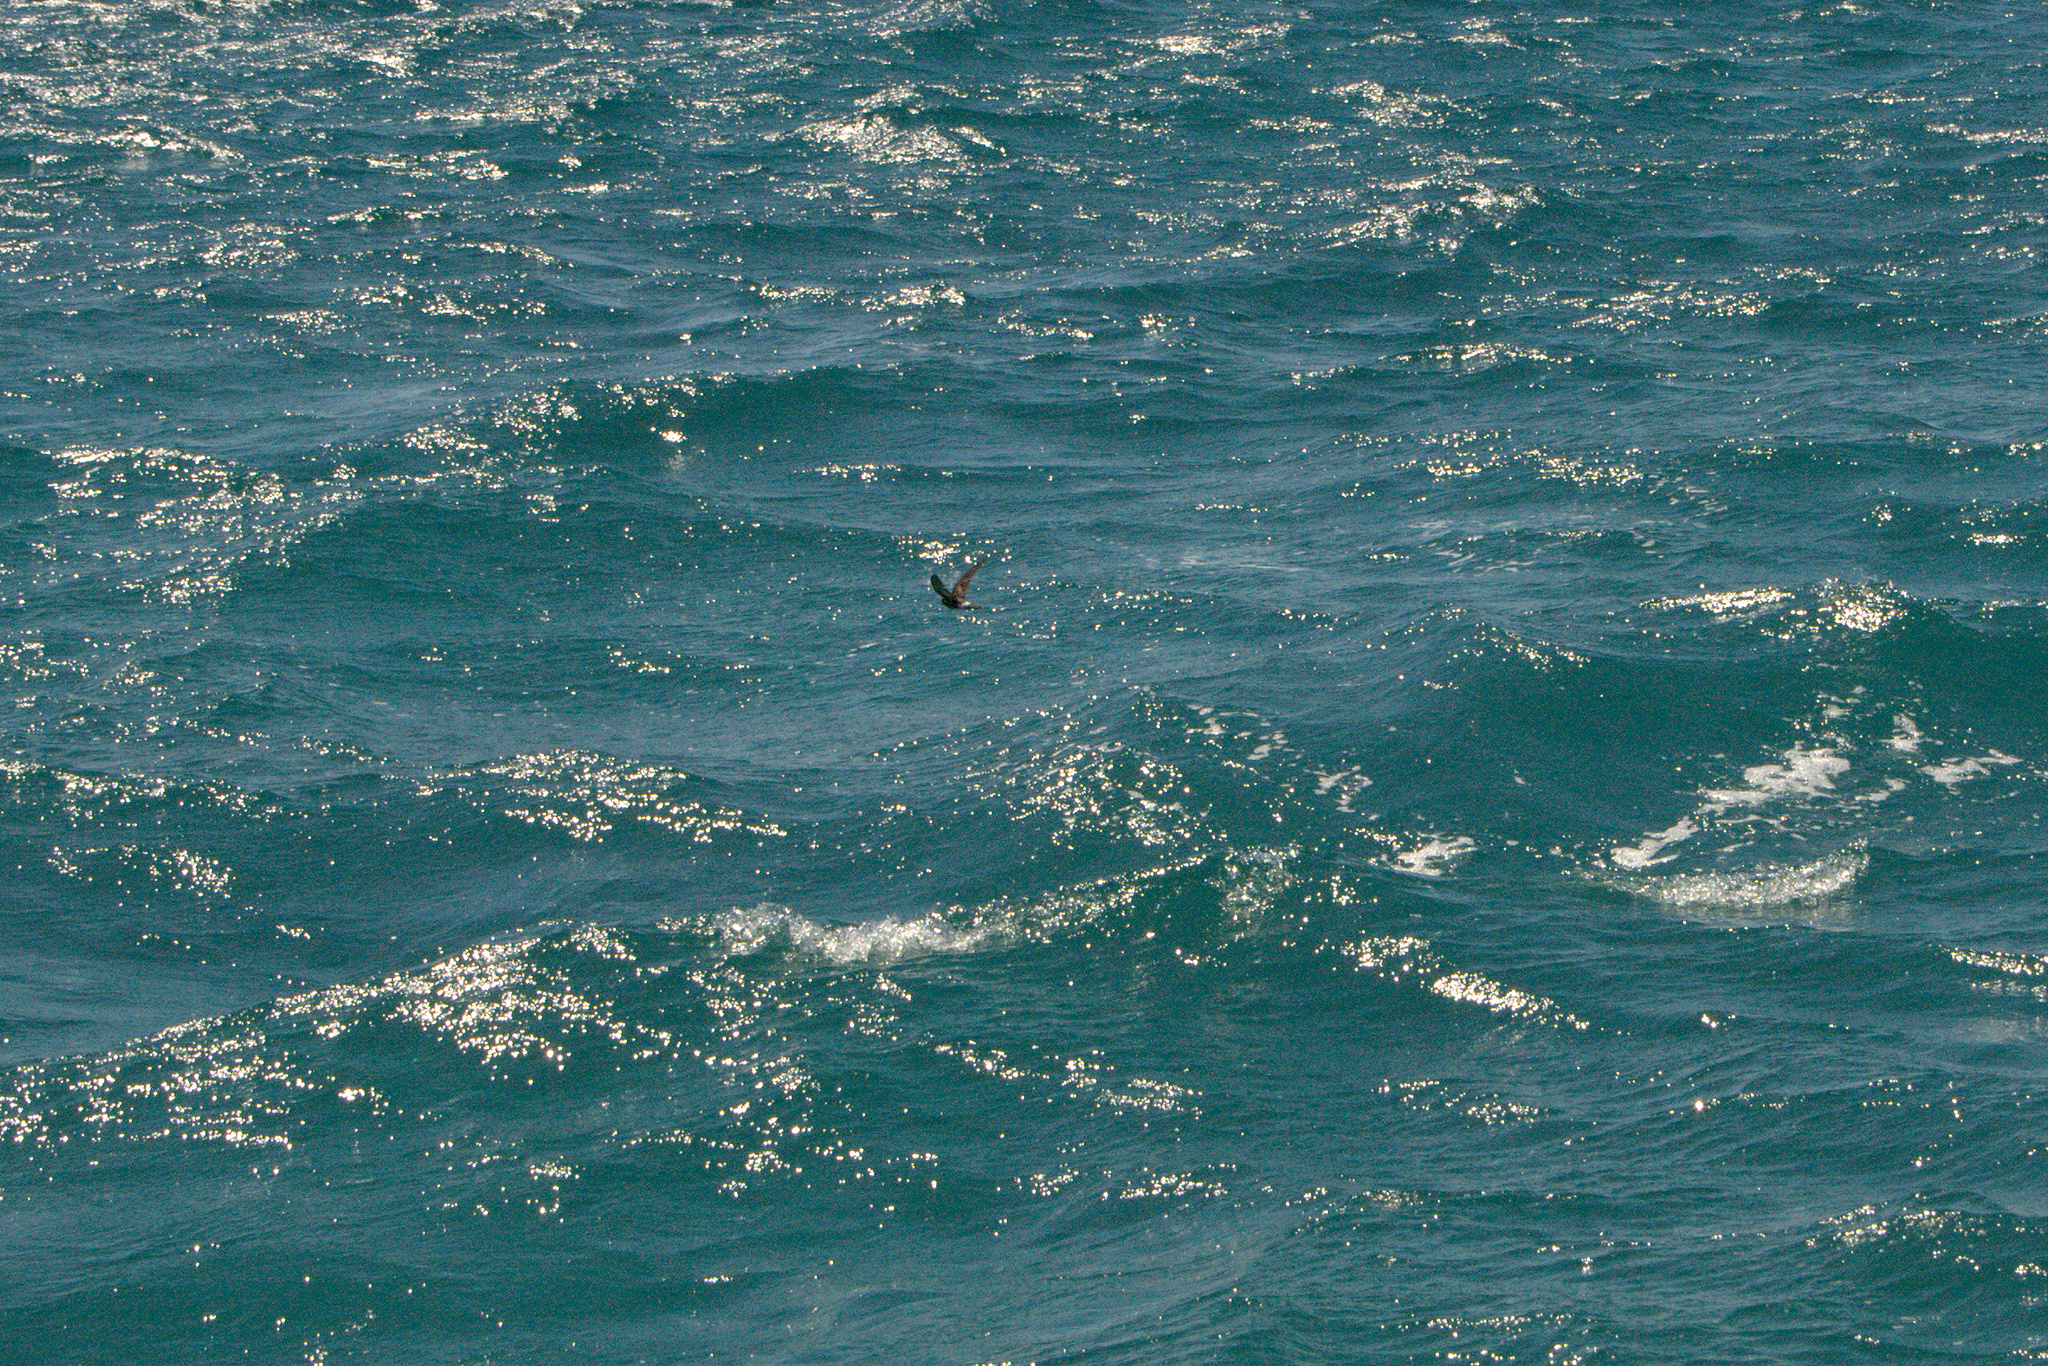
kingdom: Animalia
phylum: Chordata
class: Aves
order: Procellariiformes
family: Hydrobatidae
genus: Oceanites
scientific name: Oceanites gracilis
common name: Elliot's storm-petrel
